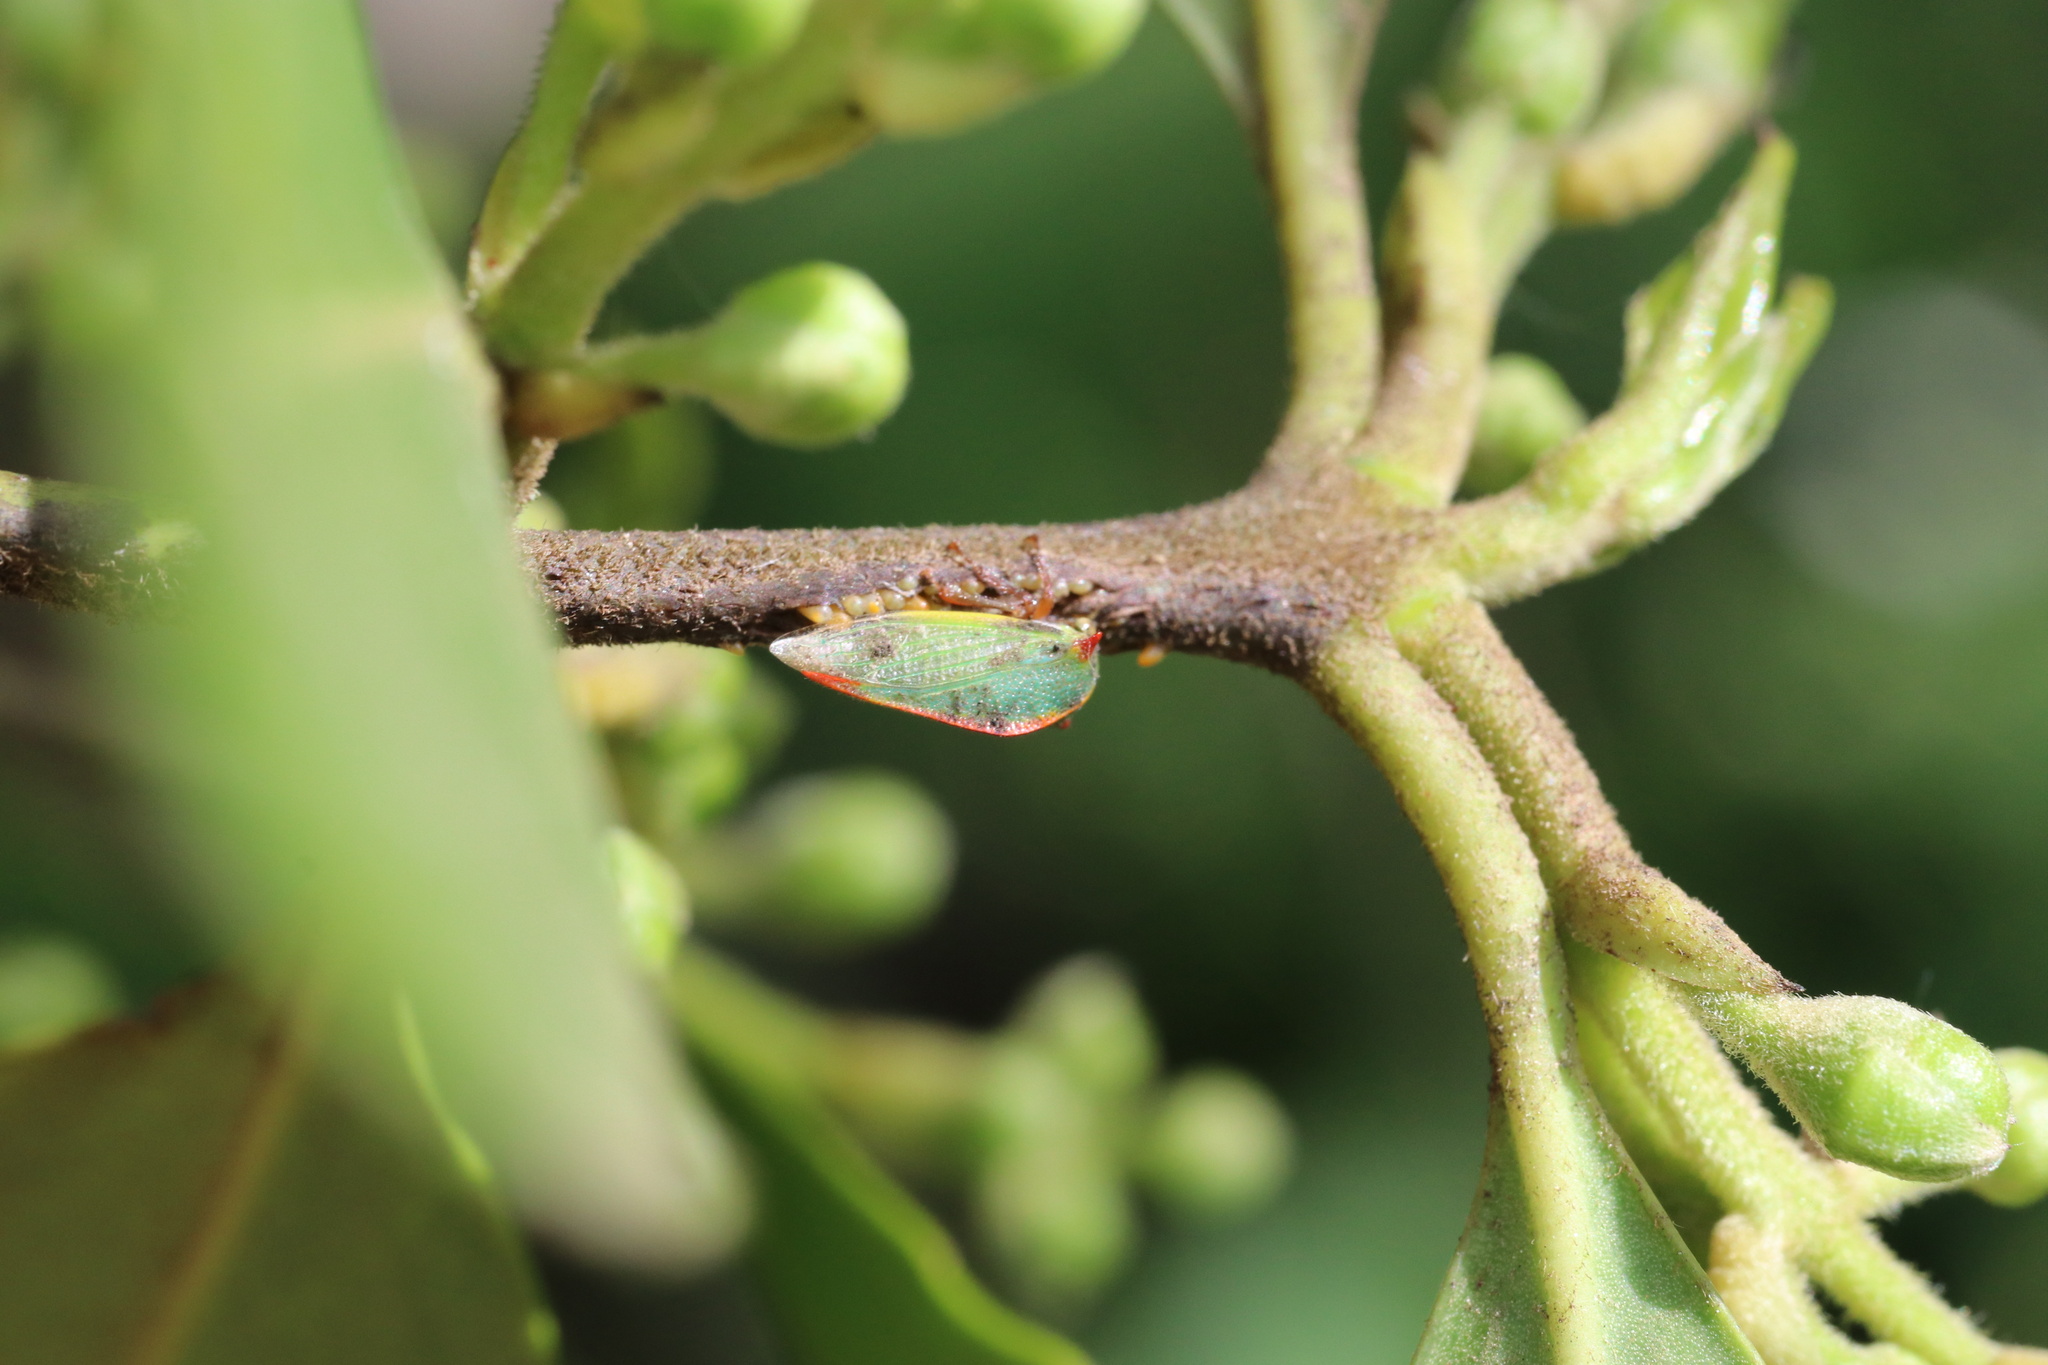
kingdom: Animalia
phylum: Arthropoda
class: Insecta
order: Hemiptera
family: Membracidae
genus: Alchisme
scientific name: Alchisme rubrocostata
